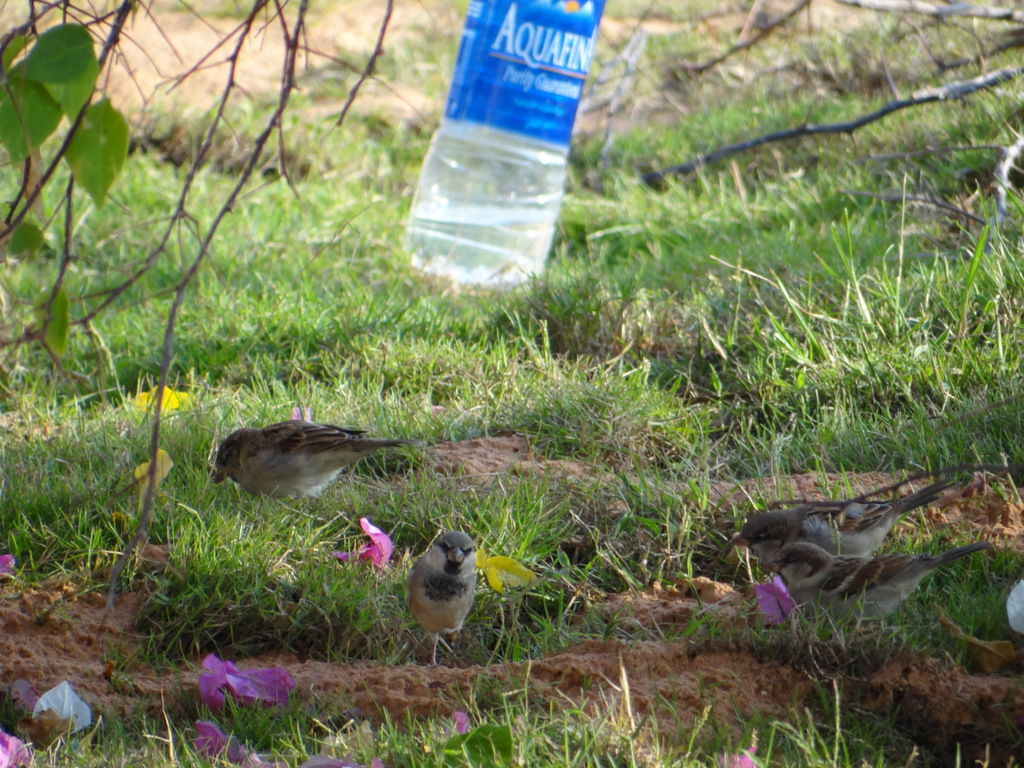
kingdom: Animalia
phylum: Chordata
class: Aves
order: Passeriformes
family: Passeridae
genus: Passer
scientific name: Passer domesticus
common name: House sparrow
